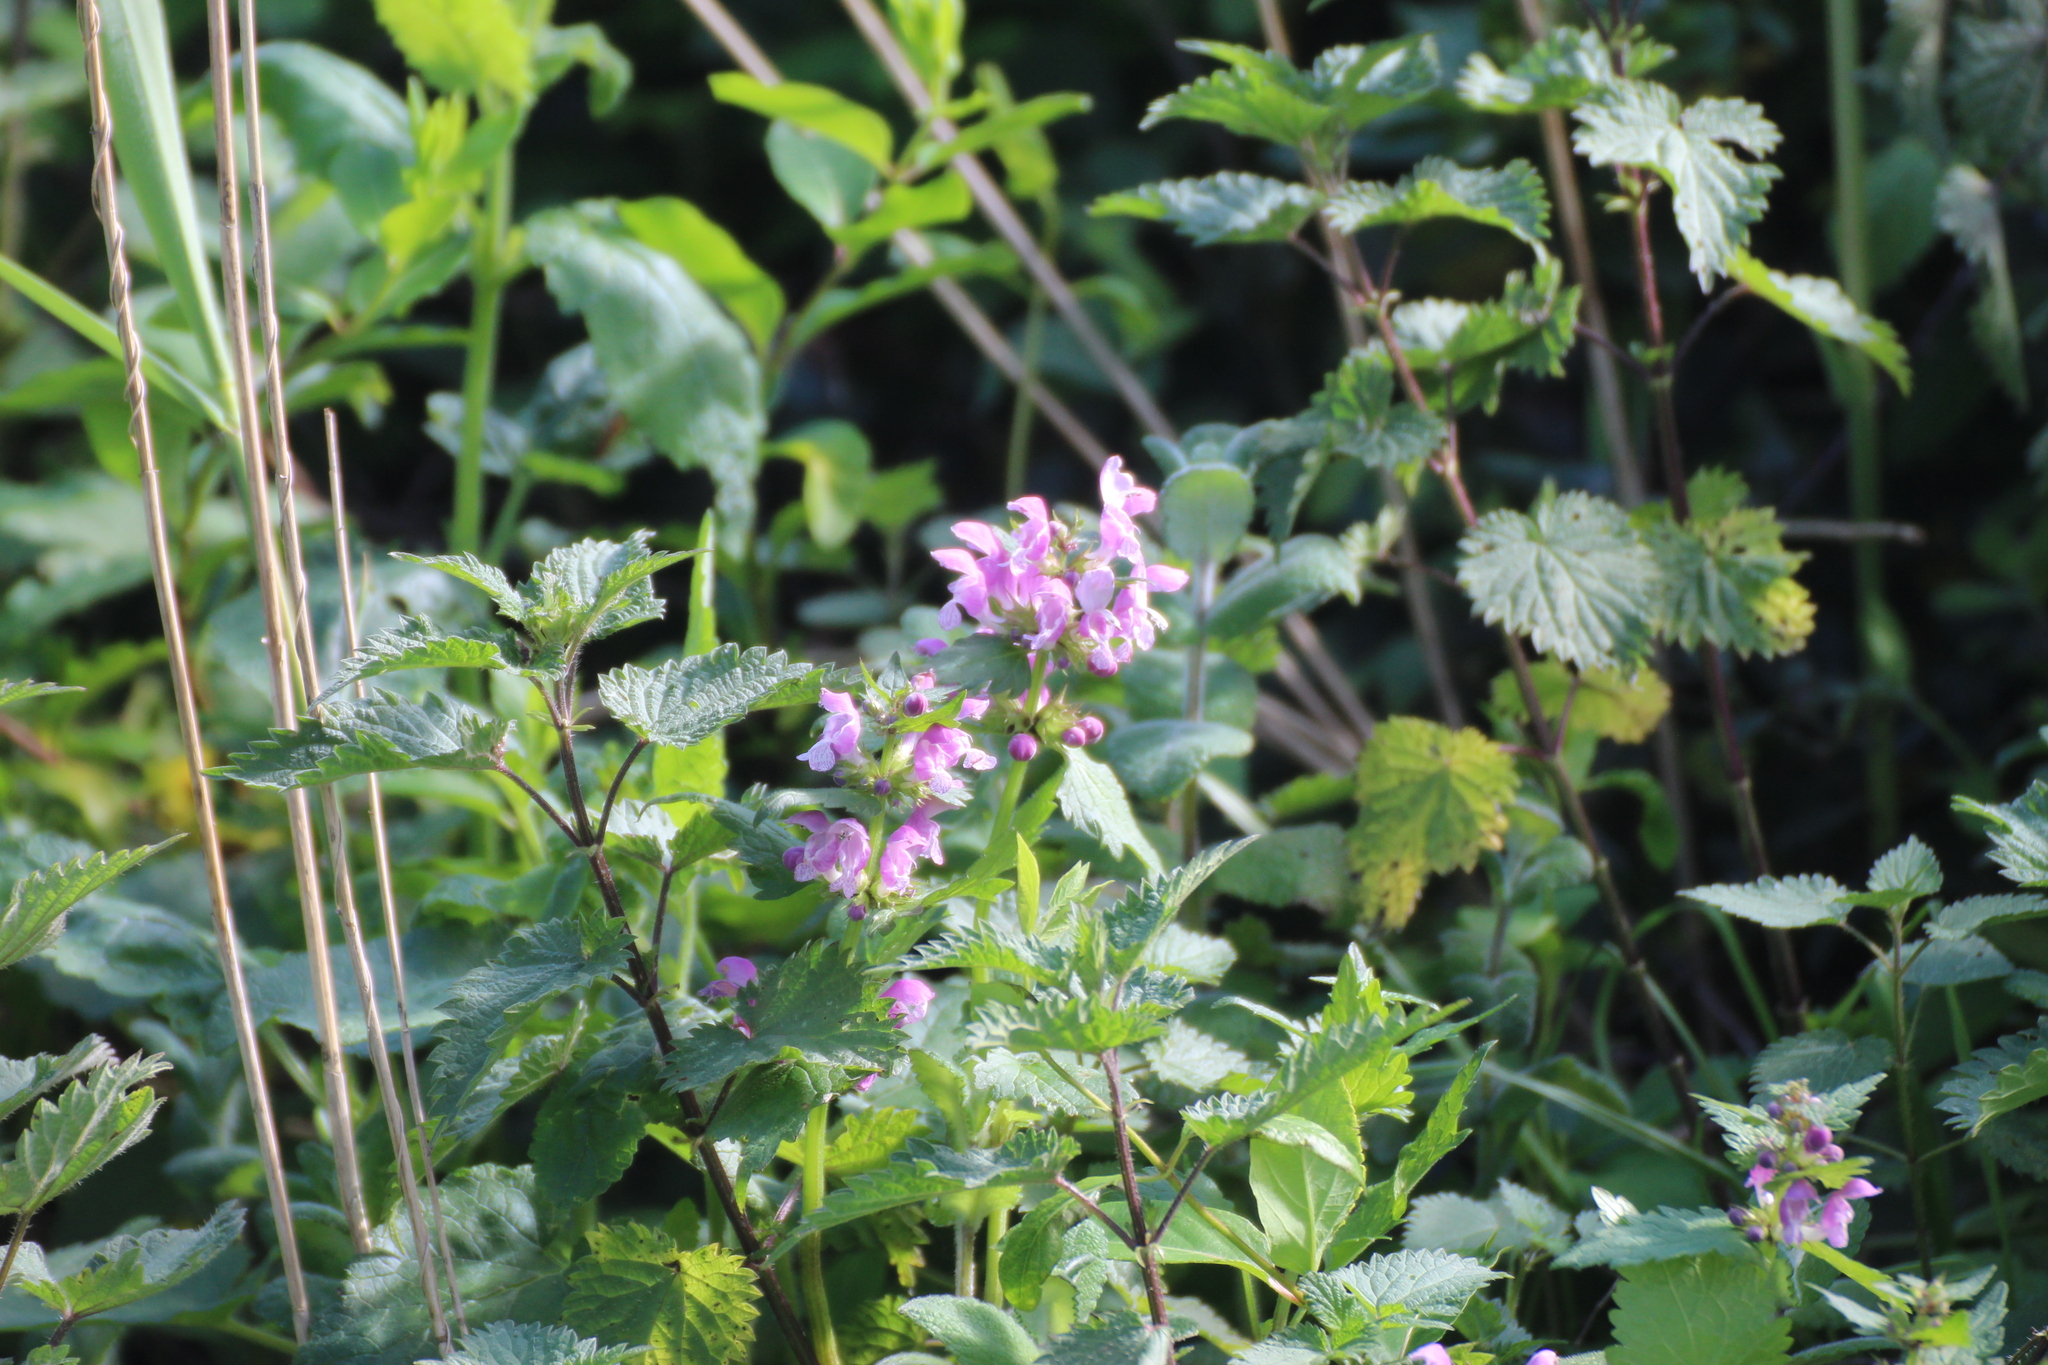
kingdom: Plantae
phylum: Tracheophyta
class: Magnoliopsida
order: Lamiales
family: Lamiaceae
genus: Lamium
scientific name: Lamium maculatum
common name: Spotted dead-nettle
